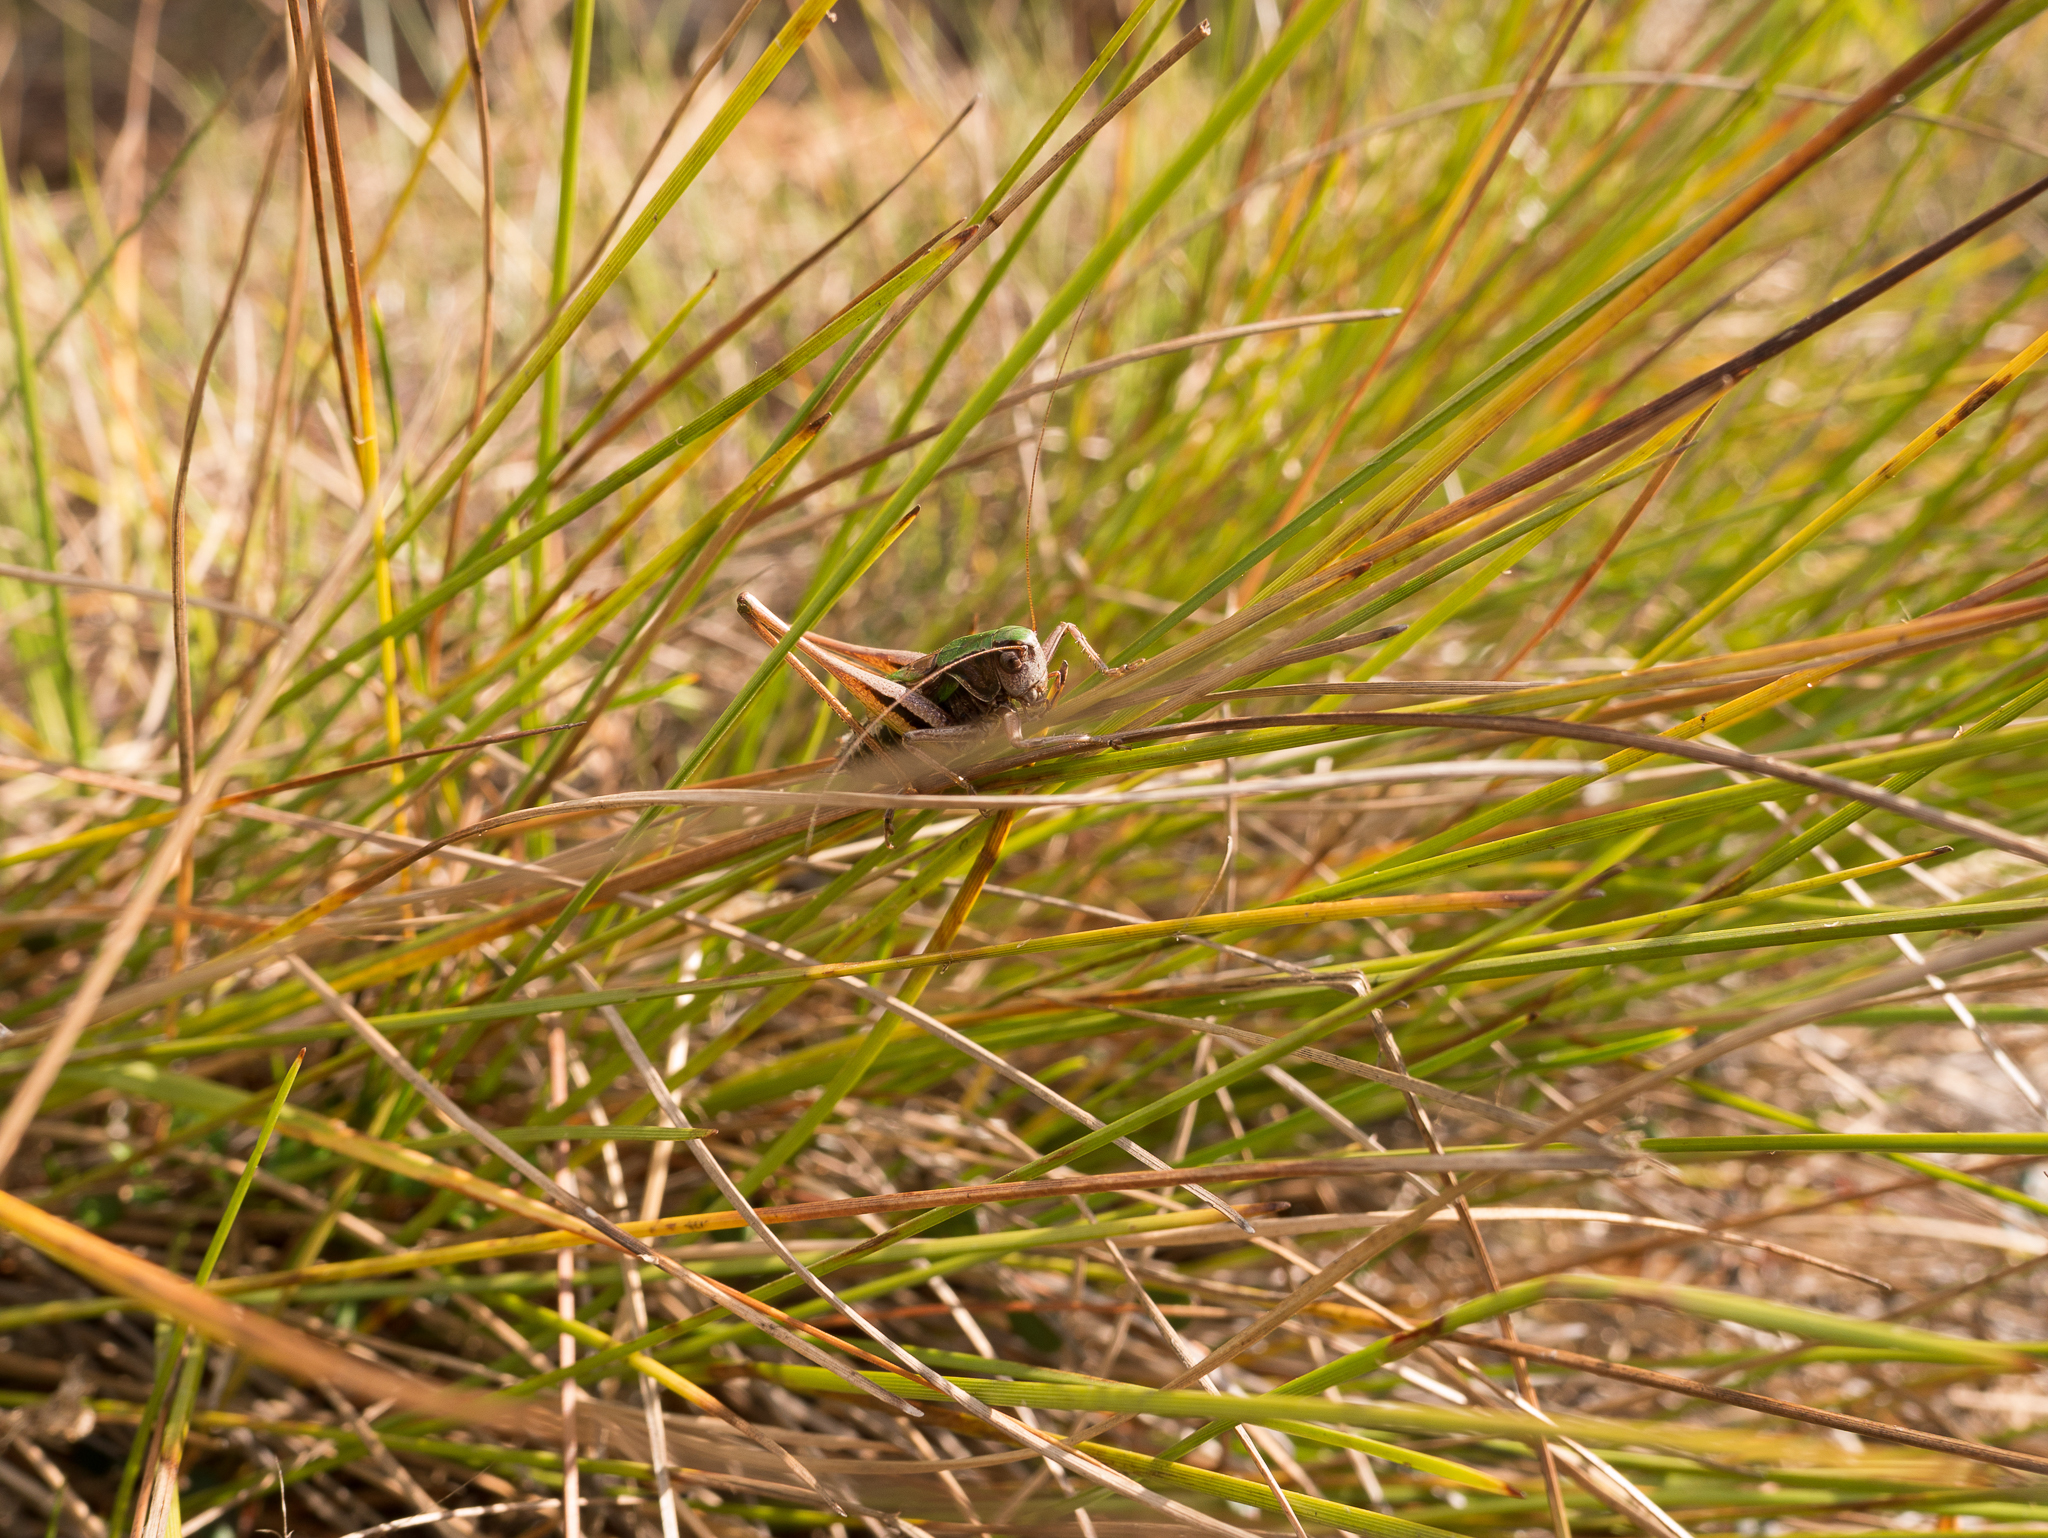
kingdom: Animalia
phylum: Arthropoda
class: Insecta
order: Orthoptera
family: Tettigoniidae
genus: Metrioptera
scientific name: Metrioptera brachyptera
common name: Bog bush-cricket
